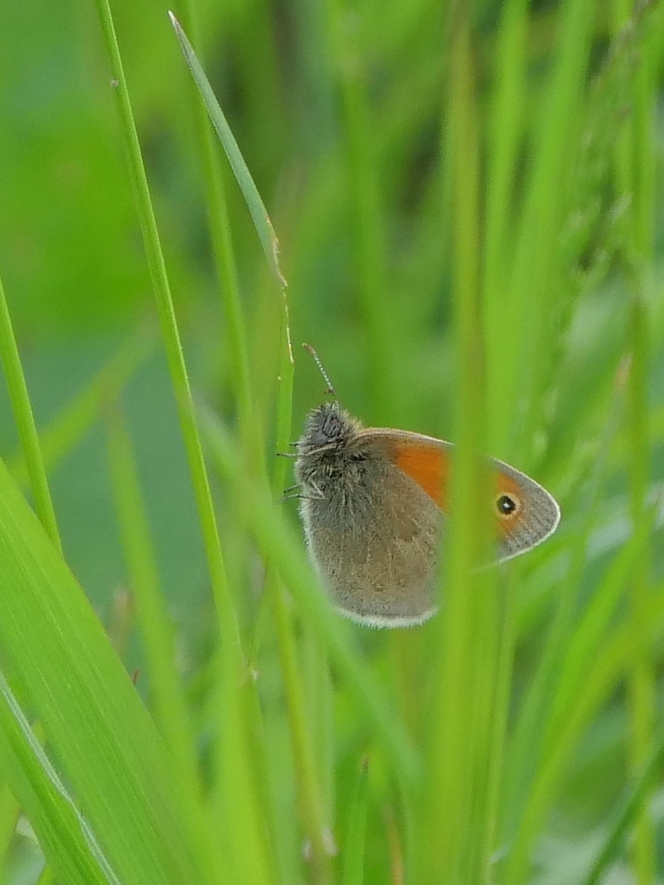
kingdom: Animalia
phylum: Arthropoda
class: Insecta
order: Lepidoptera
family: Nymphalidae
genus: Coenonympha
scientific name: Coenonympha pamphilus
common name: Small heath
